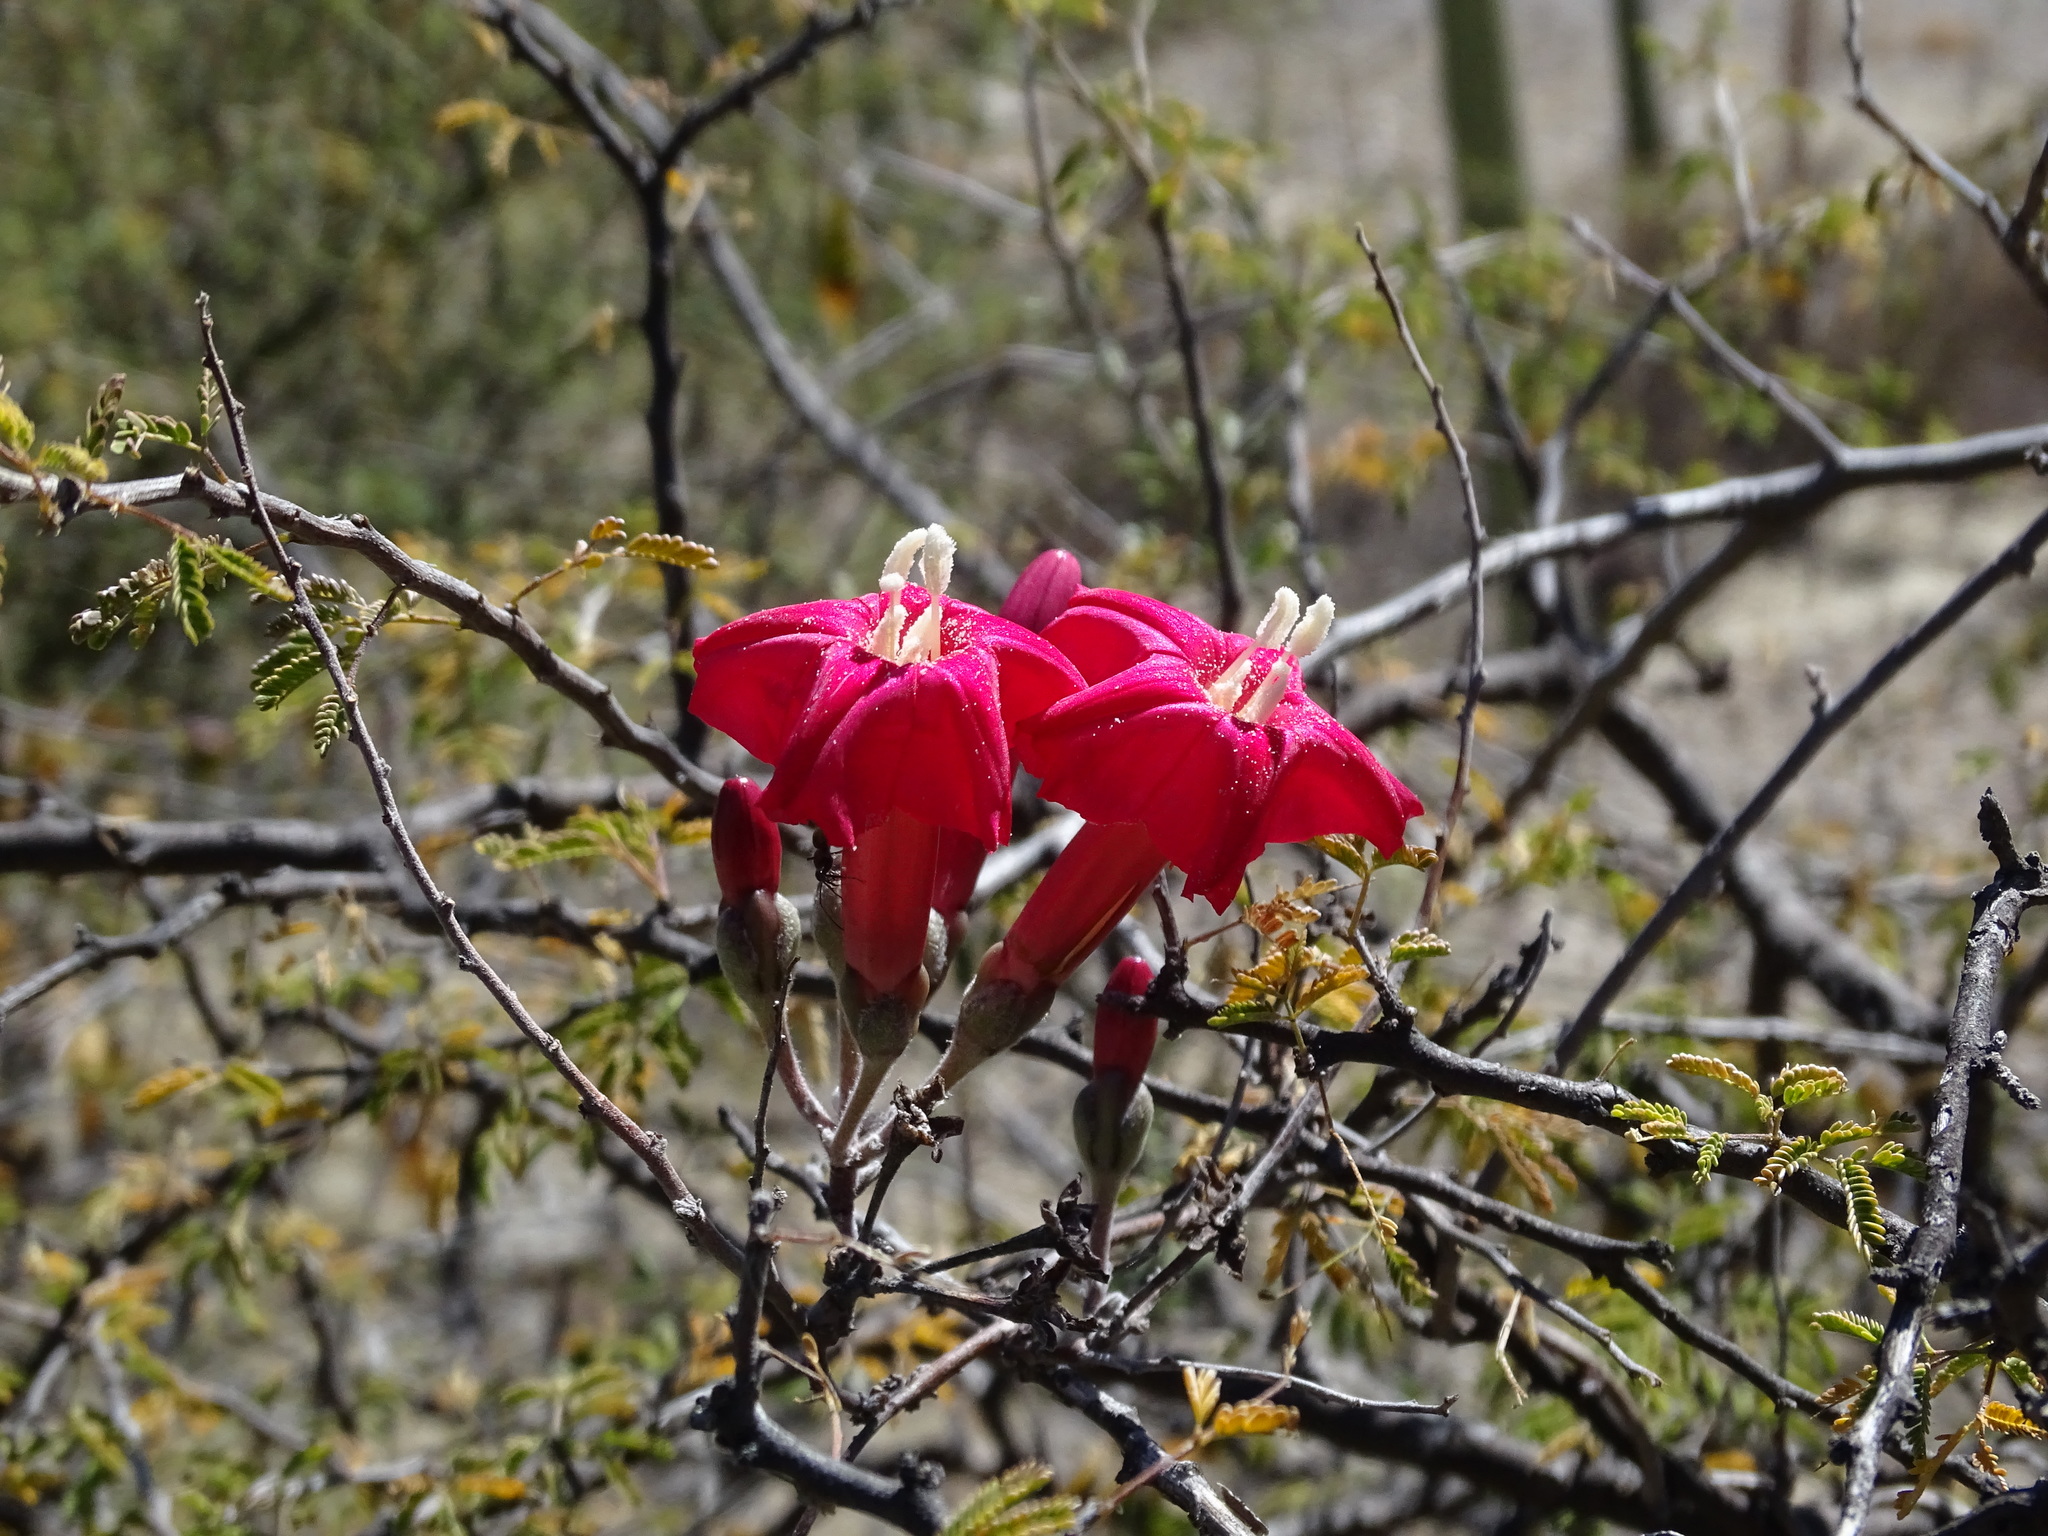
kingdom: Plantae
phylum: Tracheophyta
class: Magnoliopsida
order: Solanales
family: Convolvulaceae
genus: Ipomoea
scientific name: Ipomoea conzattii
